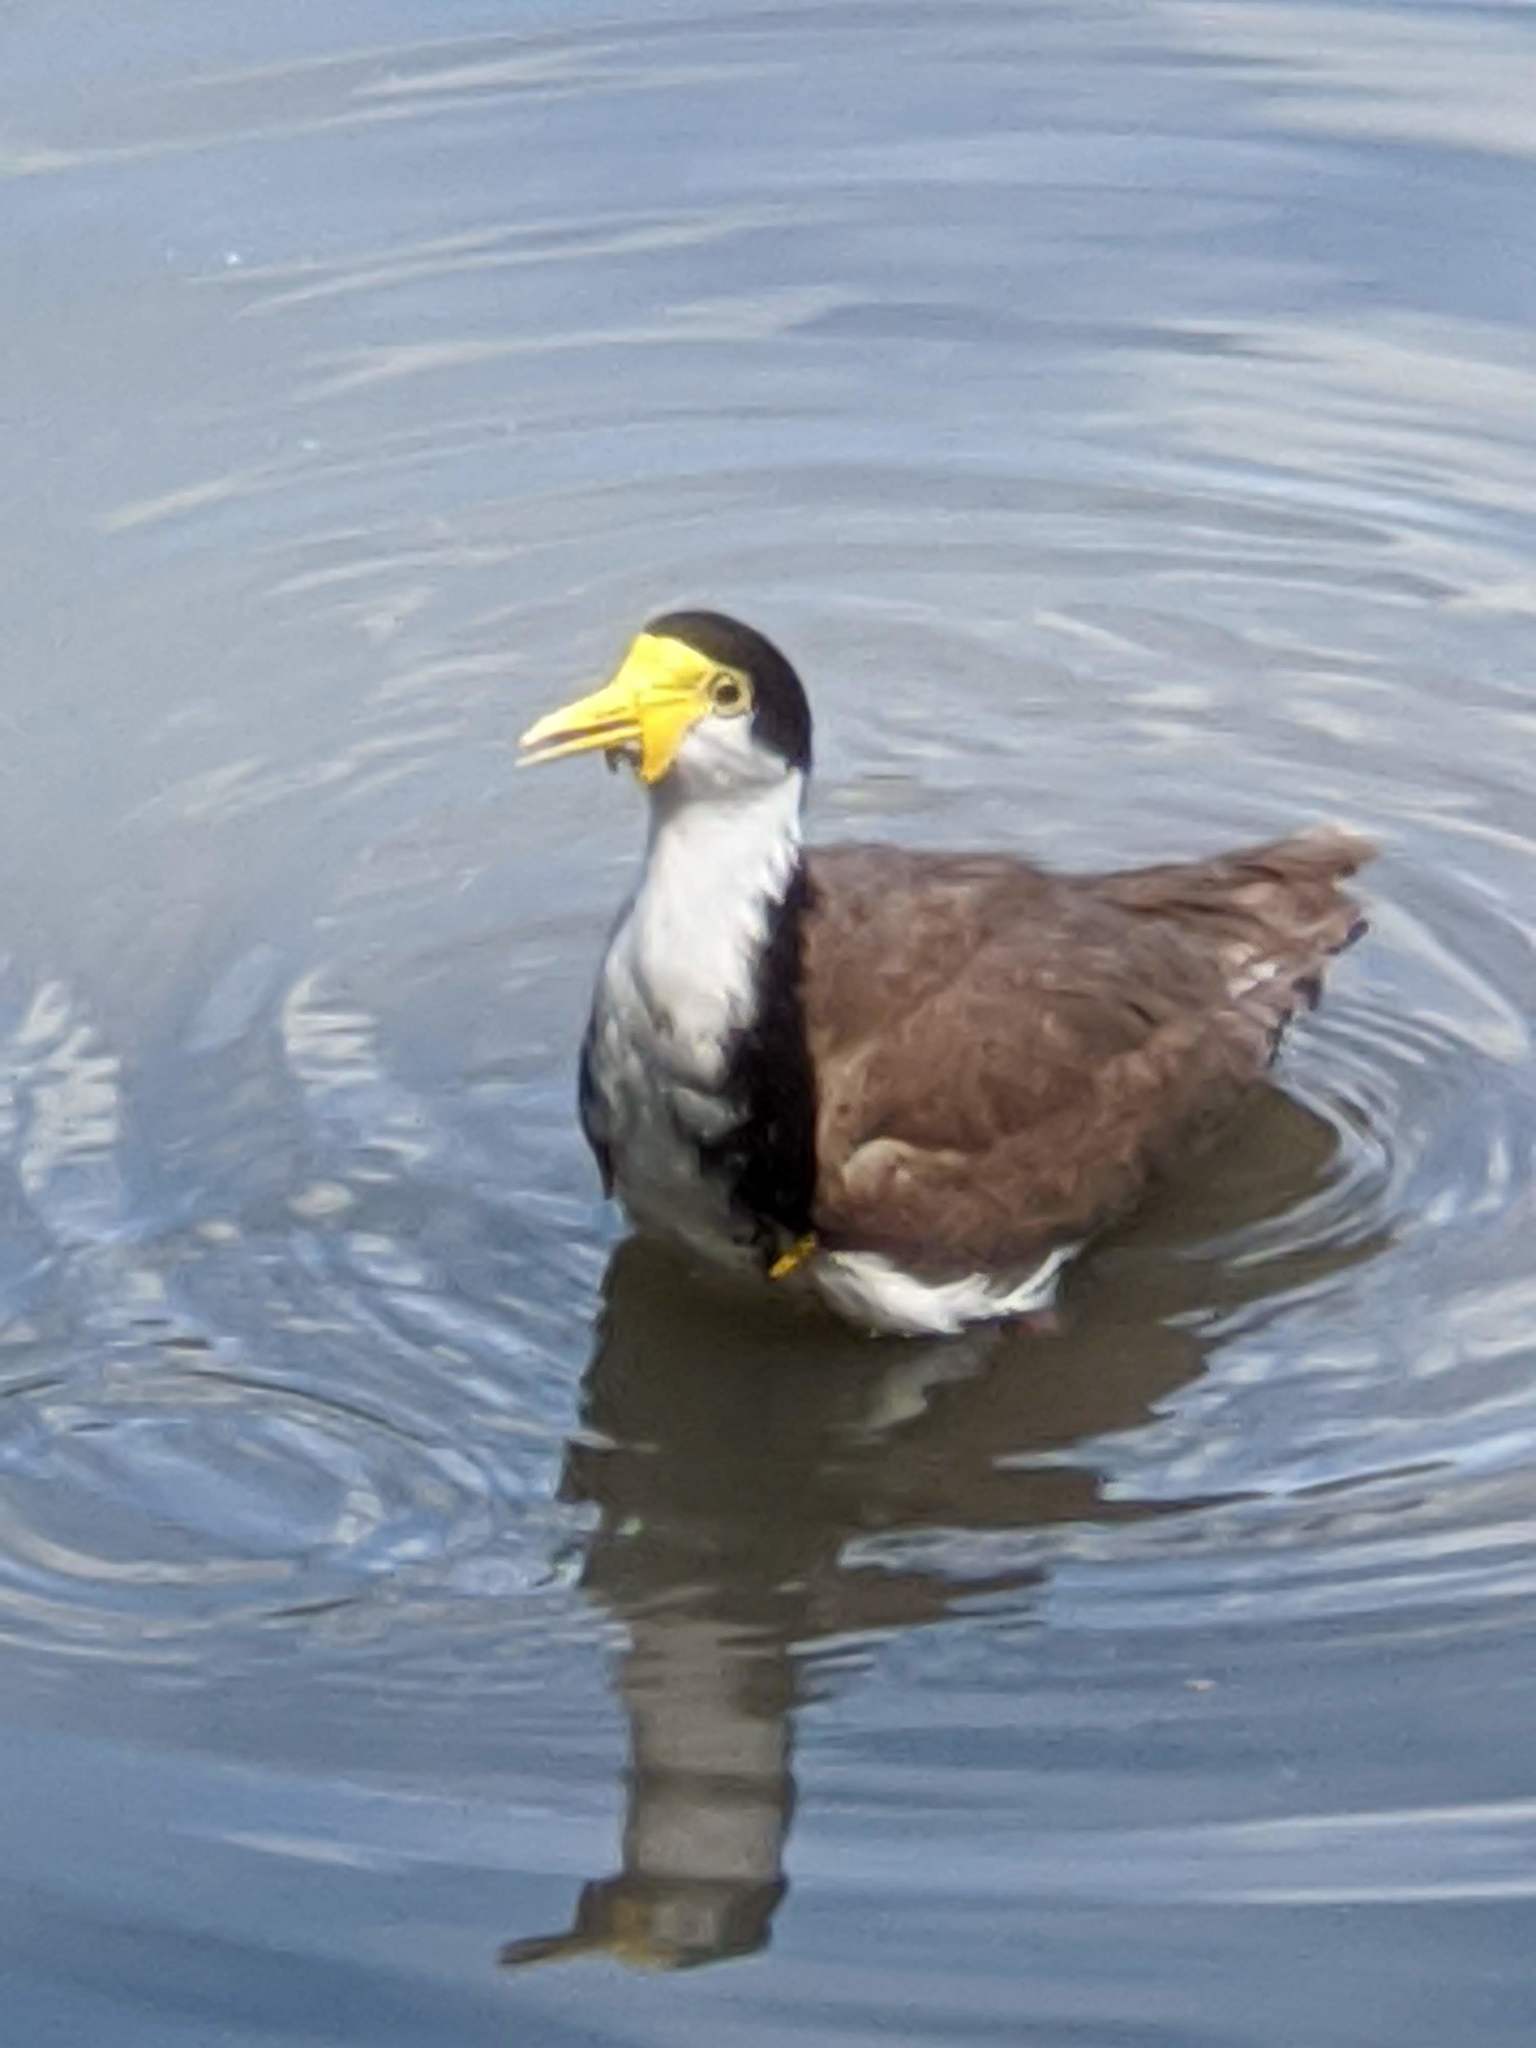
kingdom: Animalia
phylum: Chordata
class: Aves
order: Charadriiformes
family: Charadriidae
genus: Vanellus
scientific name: Vanellus miles
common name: Masked lapwing
